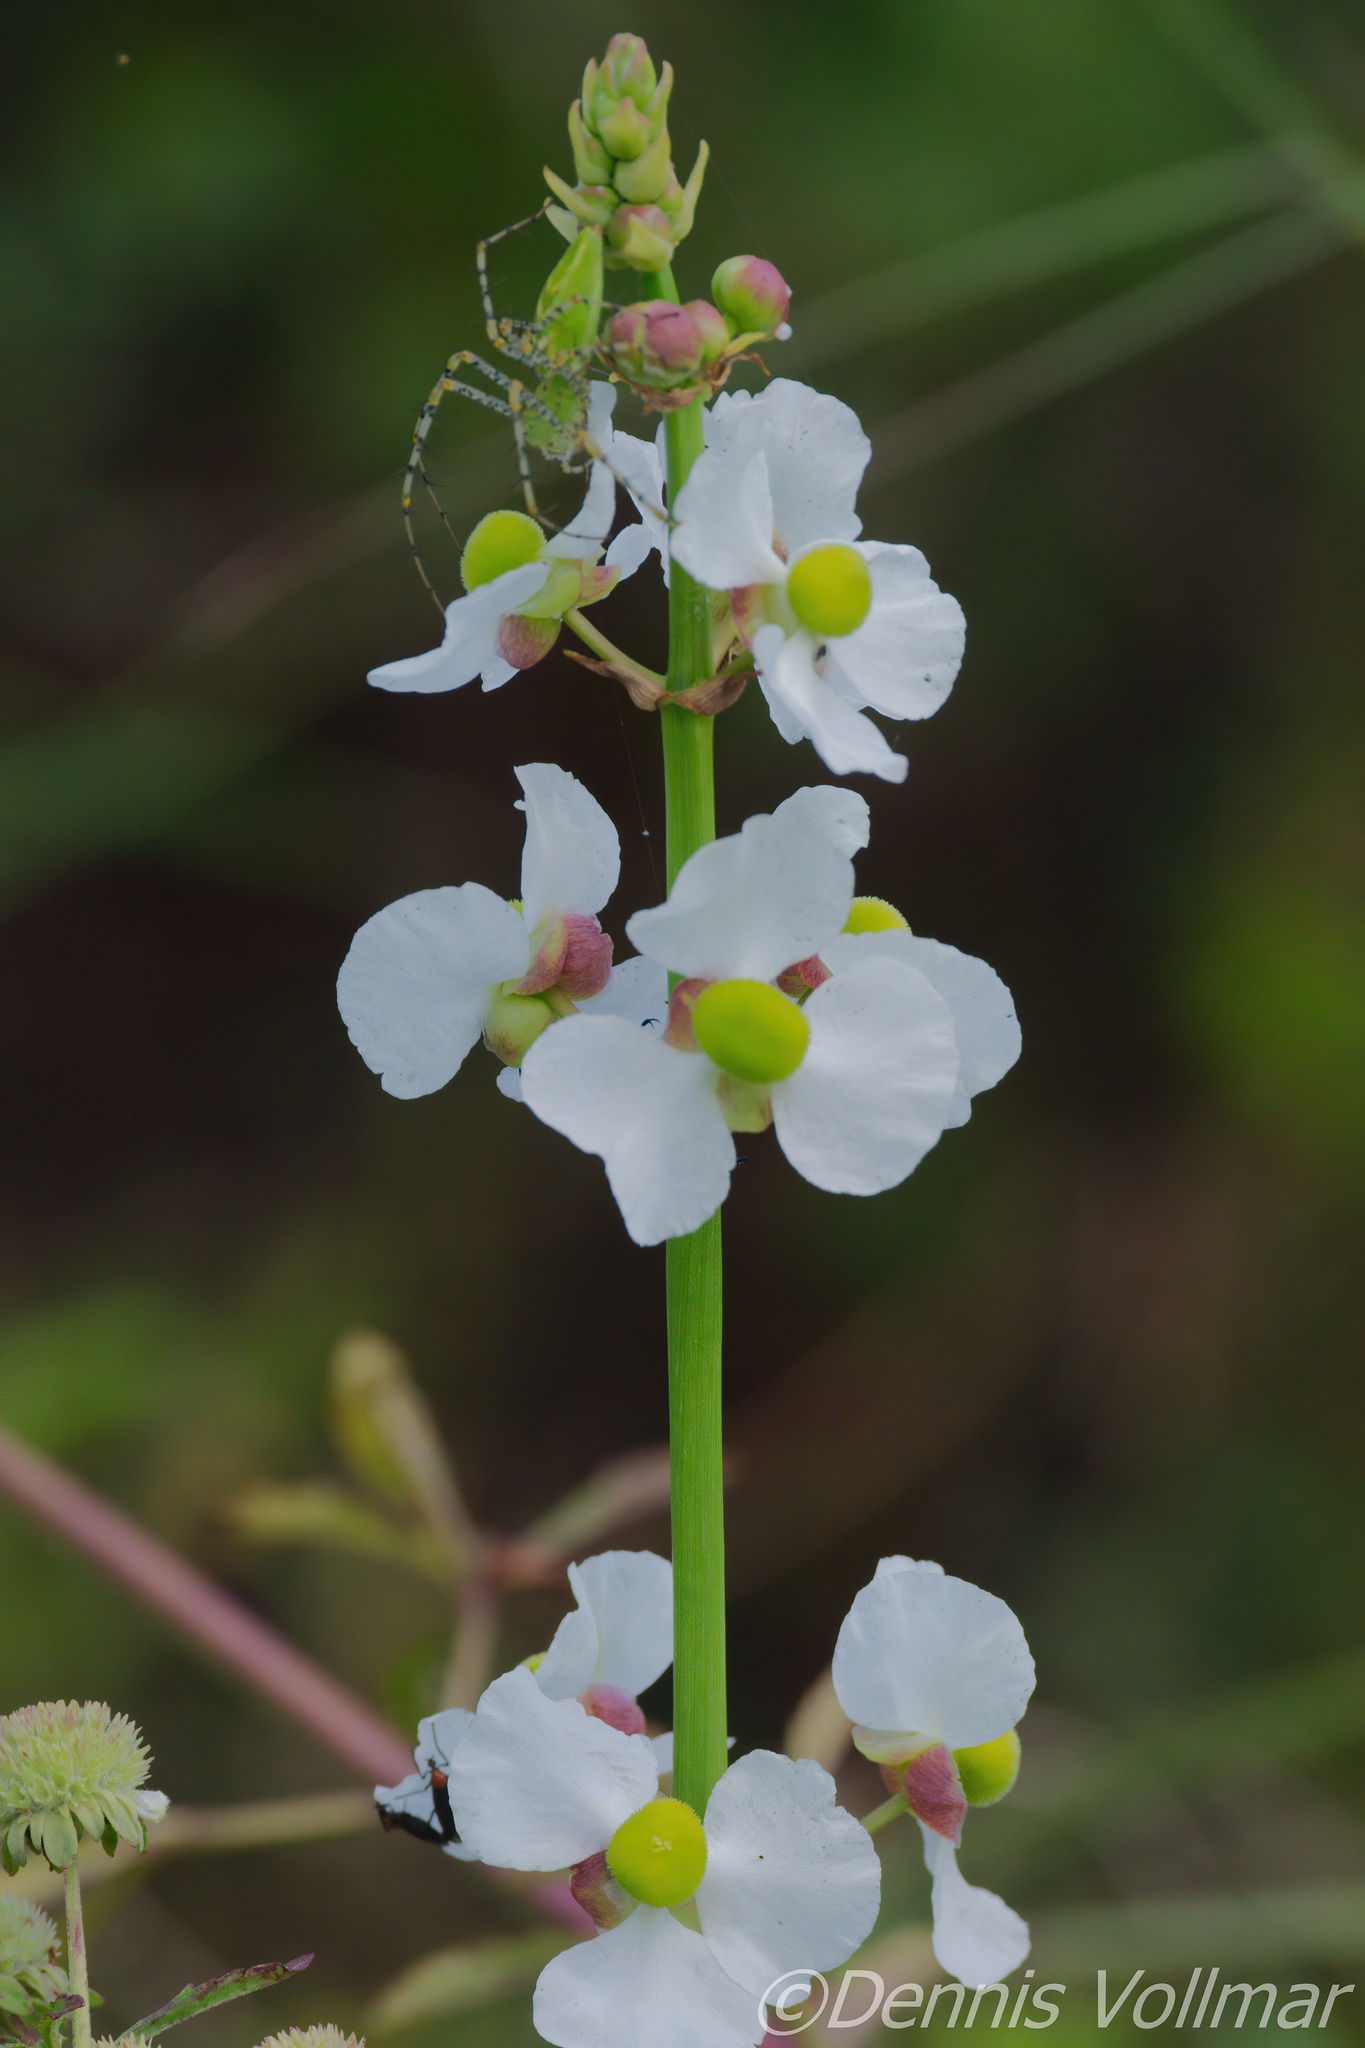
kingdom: Plantae
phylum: Tracheophyta
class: Liliopsida
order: Alismatales
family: Alismataceae
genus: Sagittaria
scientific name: Sagittaria lancifolia
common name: Lance-leaf arrowhead
